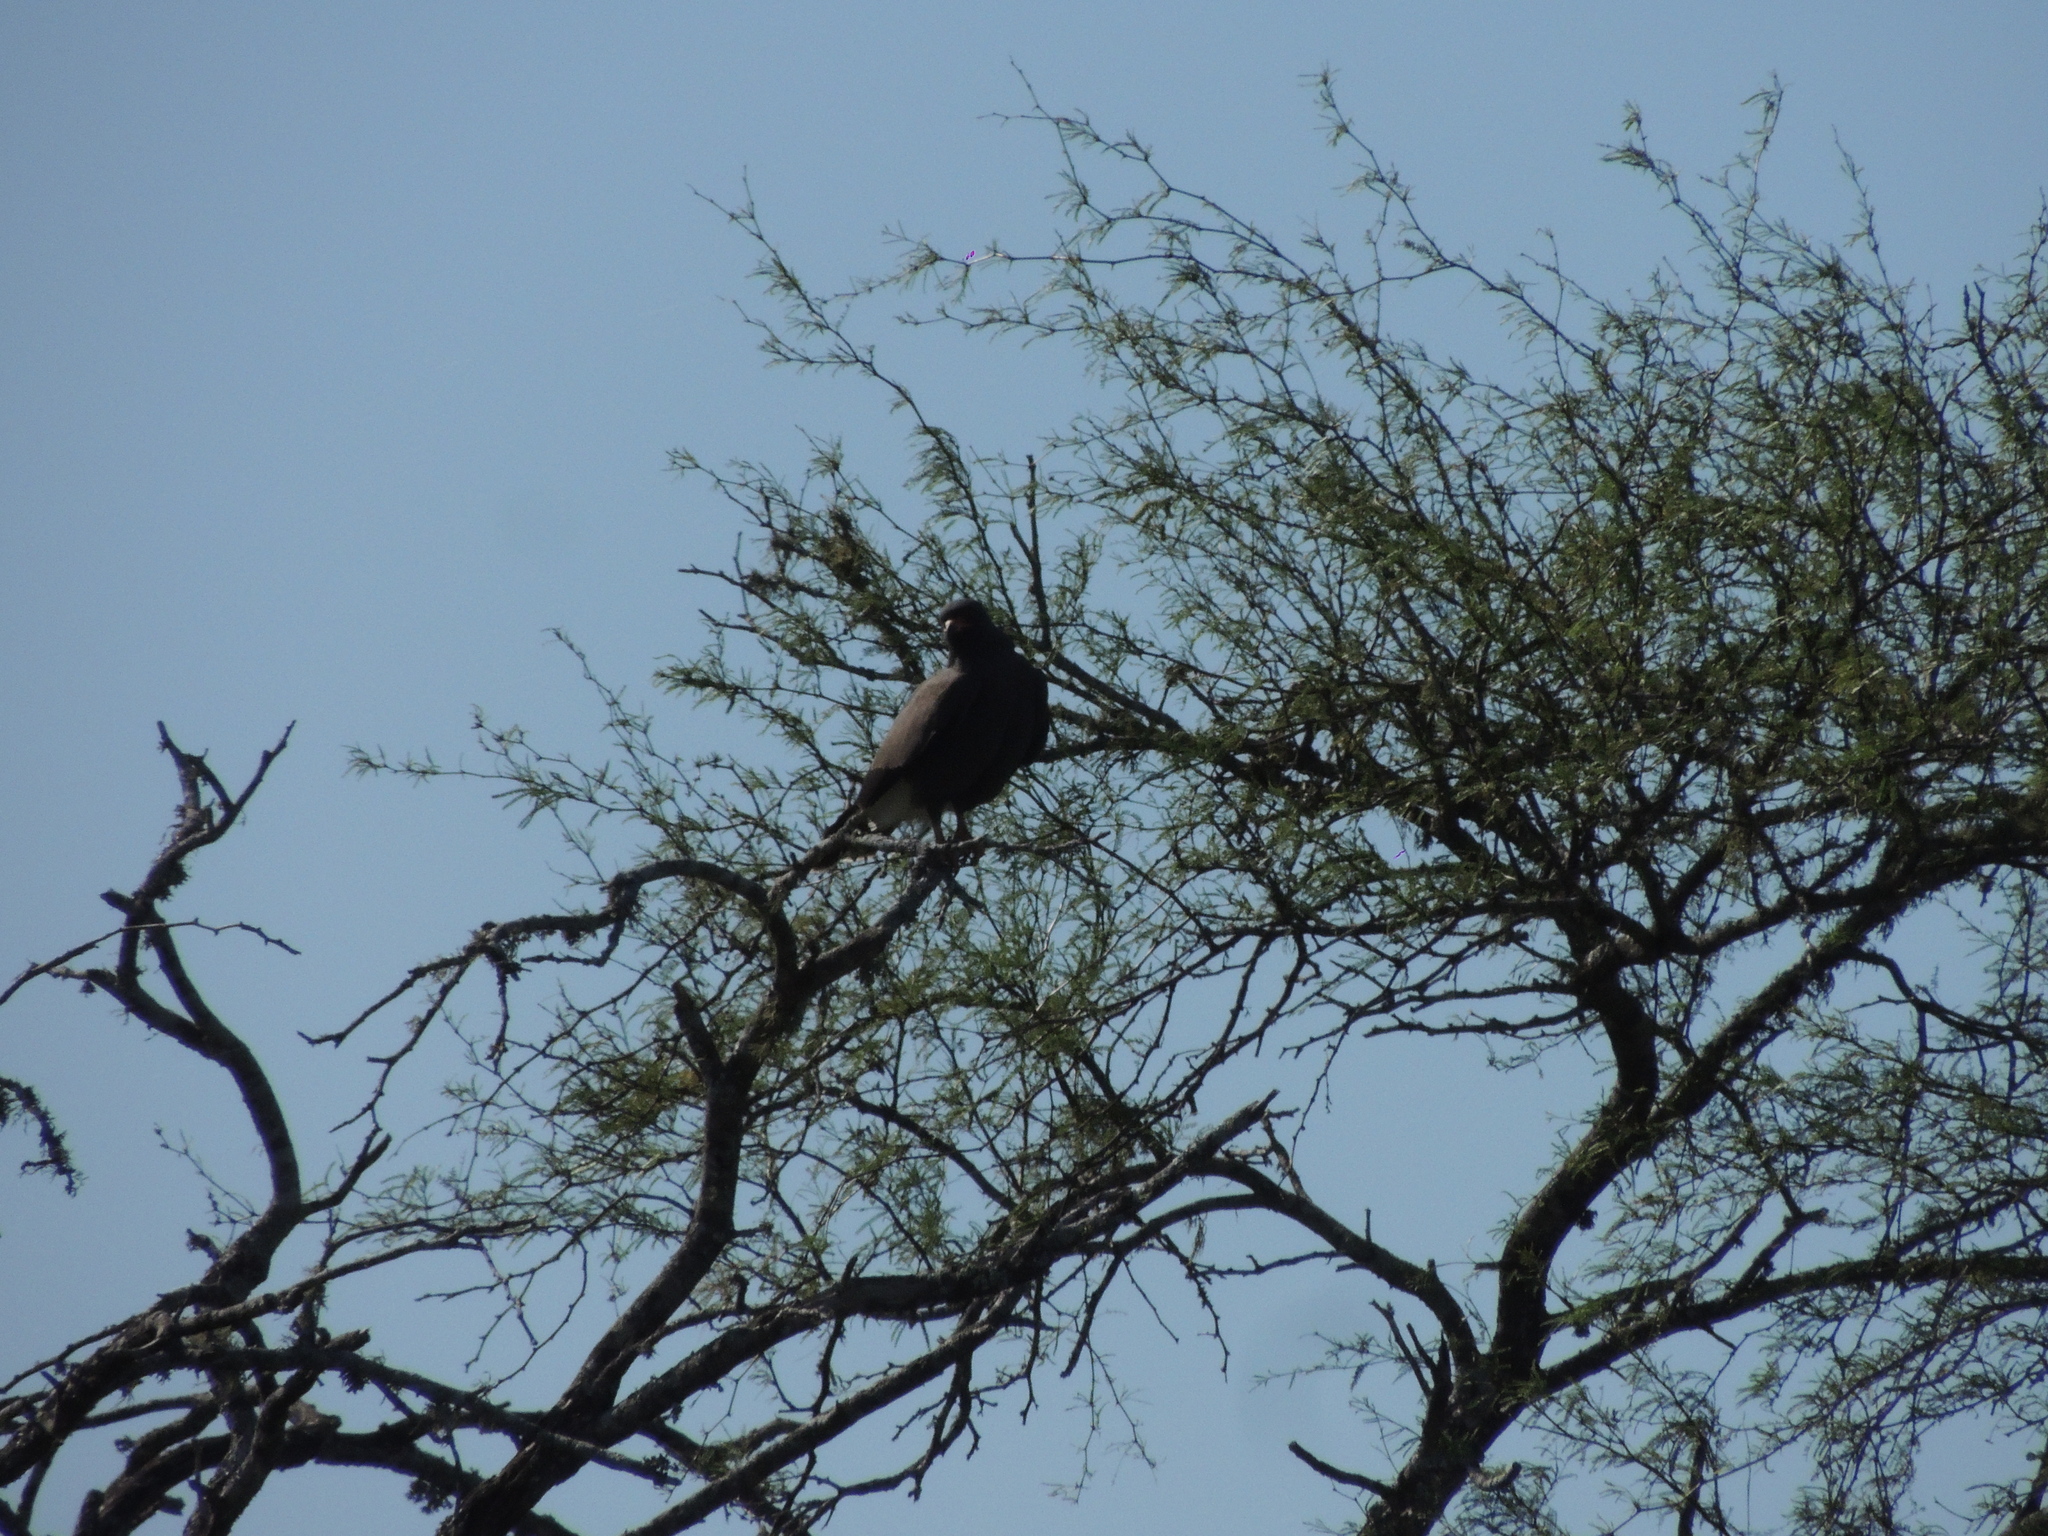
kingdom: Animalia
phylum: Chordata
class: Aves
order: Accipitriformes
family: Accipitridae
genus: Rostrhamus
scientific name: Rostrhamus sociabilis
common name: Snail kite
